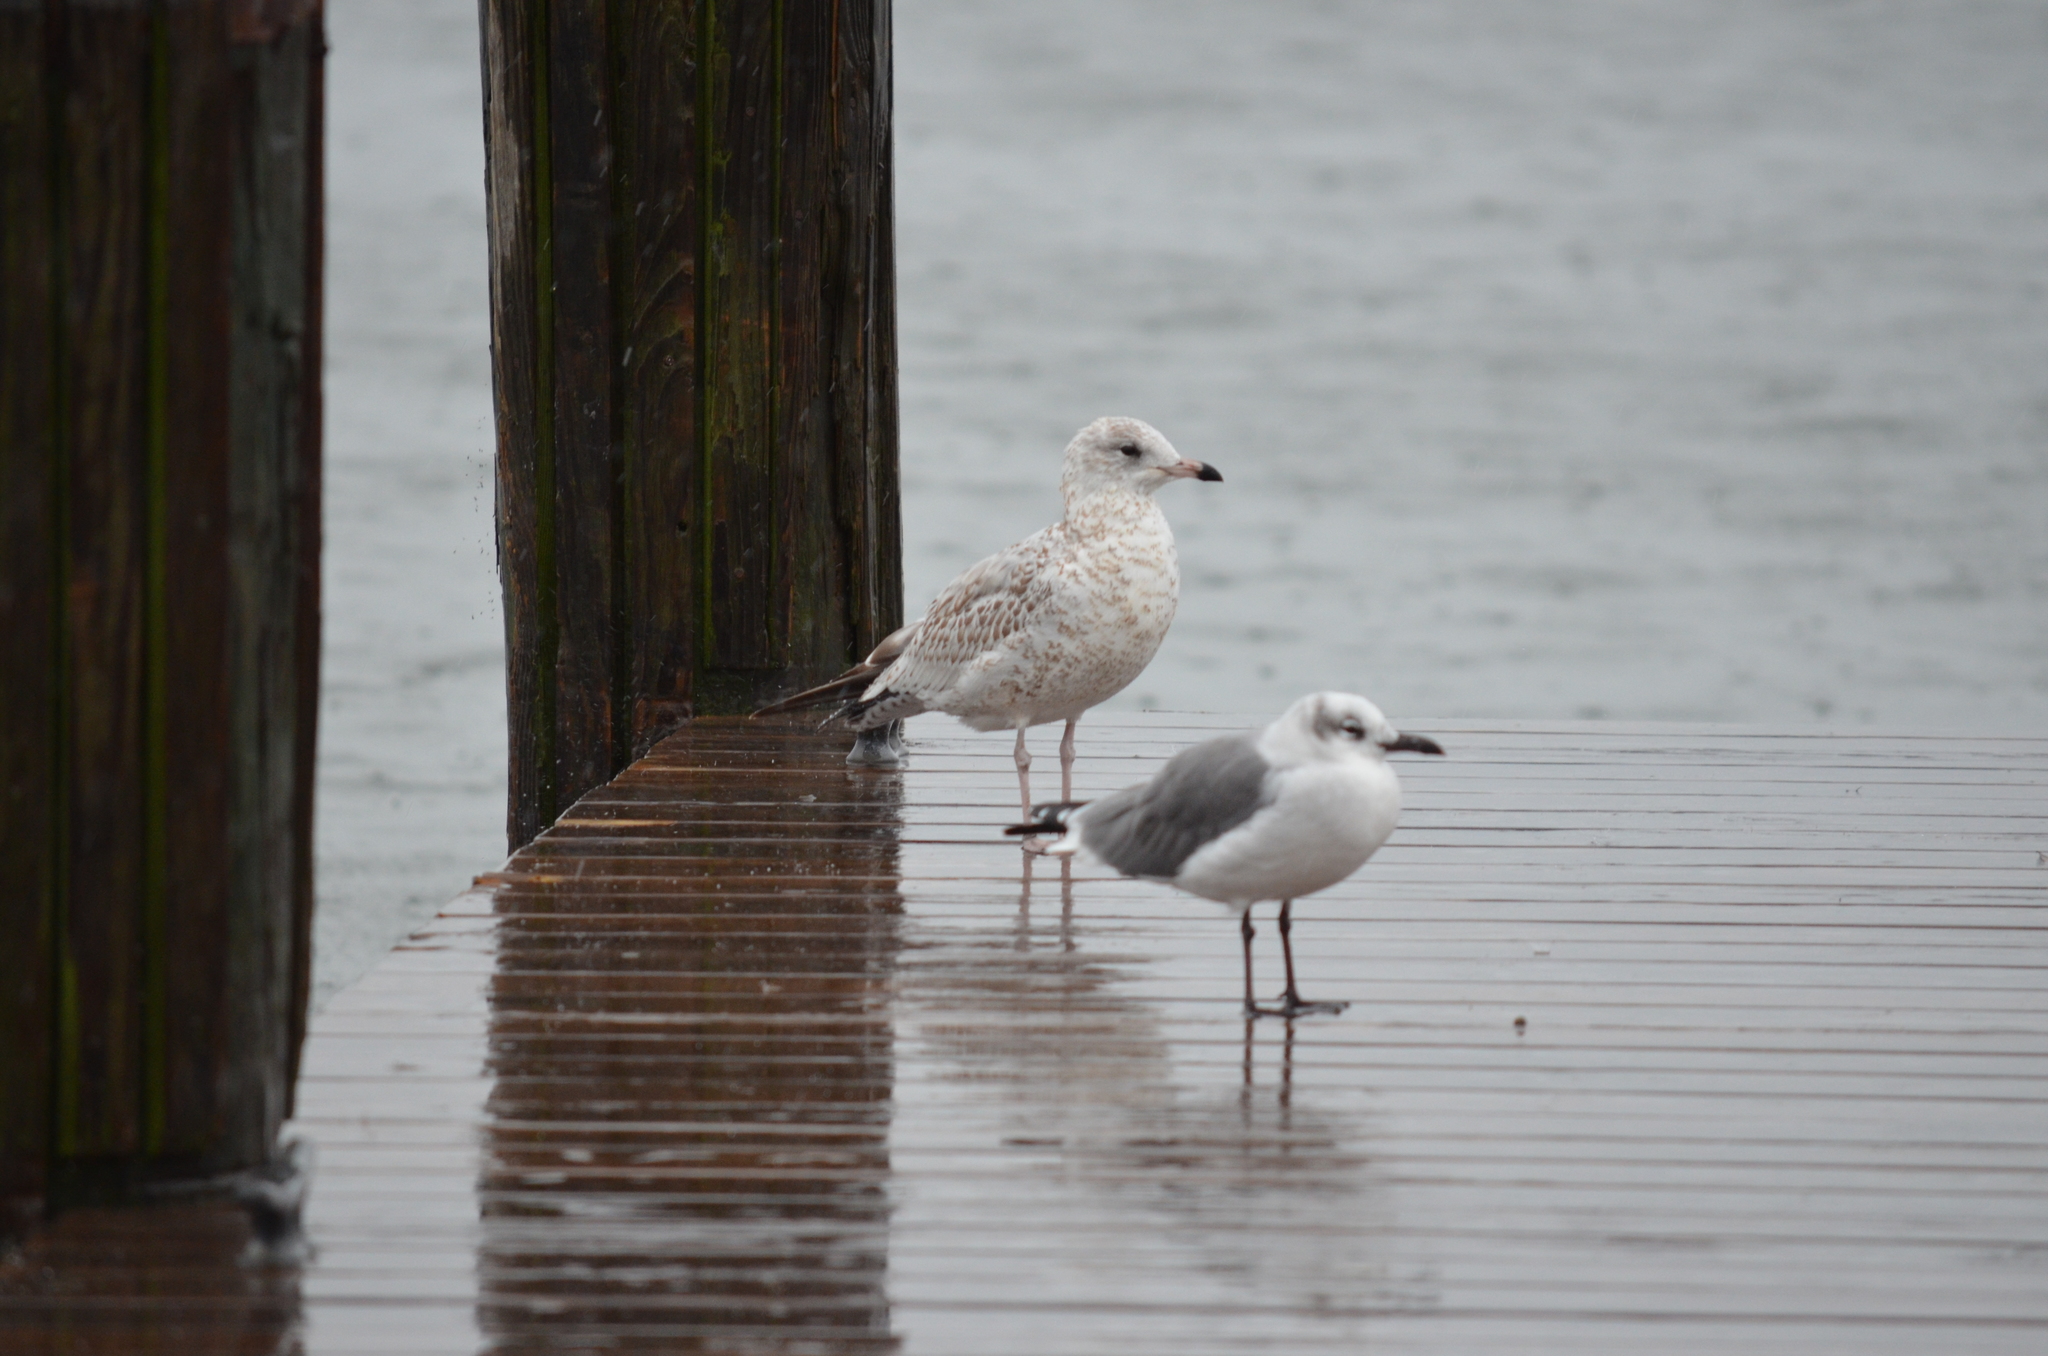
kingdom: Animalia
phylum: Chordata
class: Aves
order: Charadriiformes
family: Laridae
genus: Larus
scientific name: Larus delawarensis
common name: Ring-billed gull
